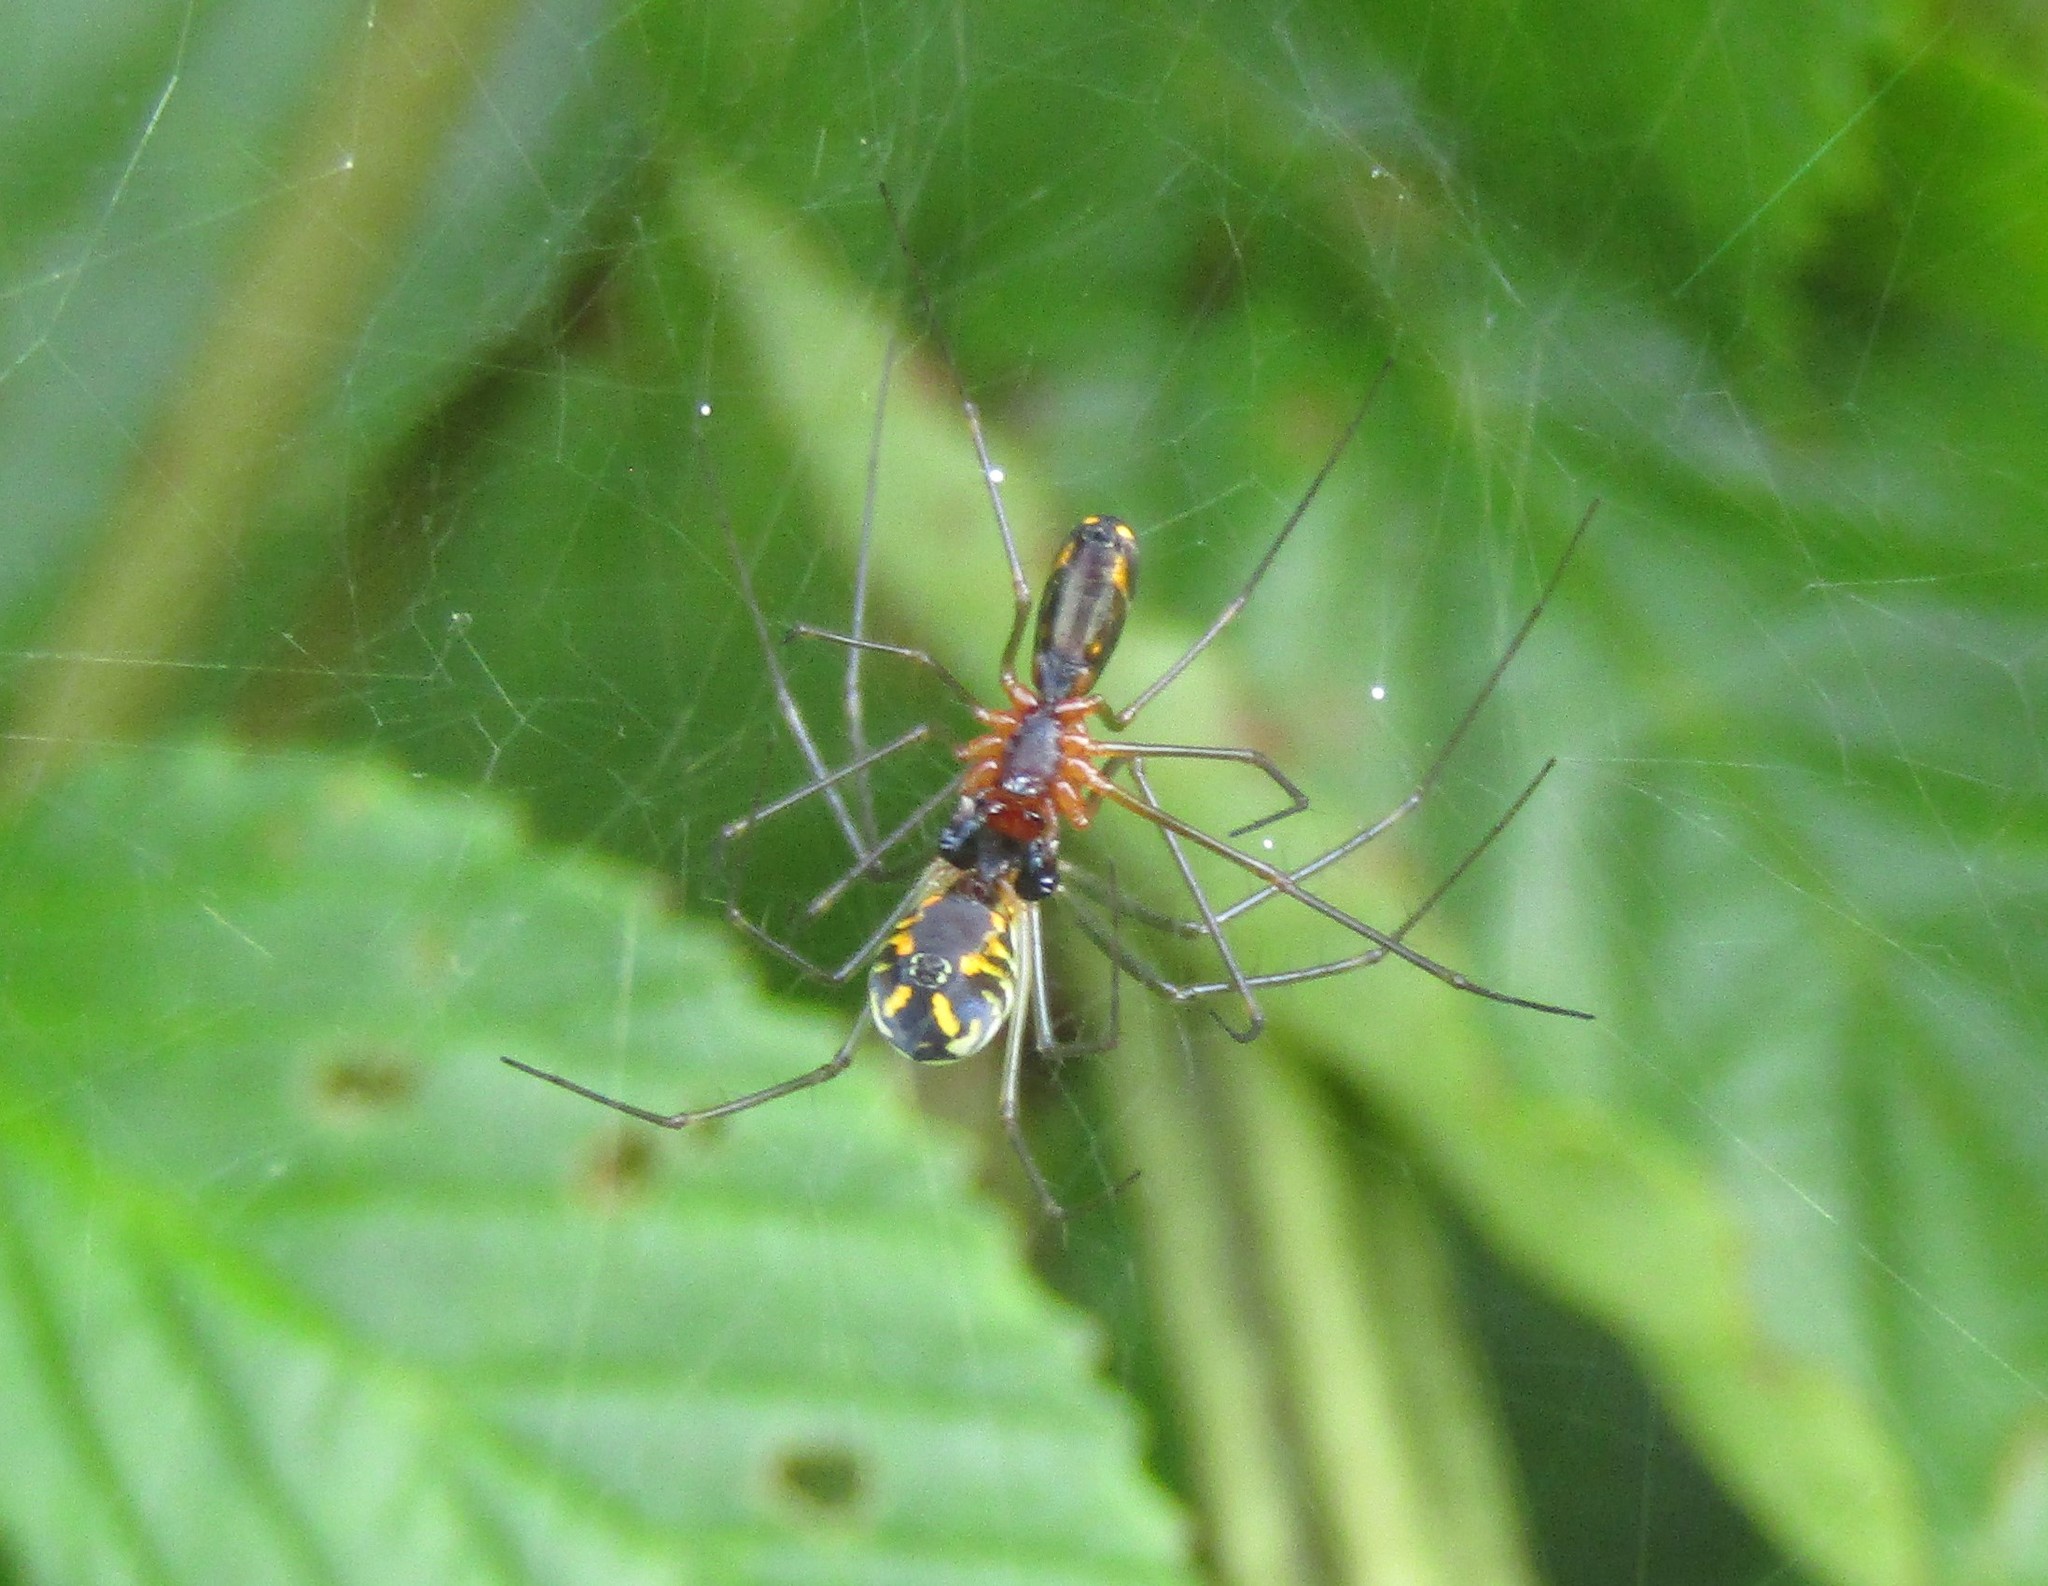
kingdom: Animalia
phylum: Arthropoda
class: Arachnida
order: Araneae
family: Linyphiidae
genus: Neriene
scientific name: Neriene radiata
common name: Filmy dome spider
